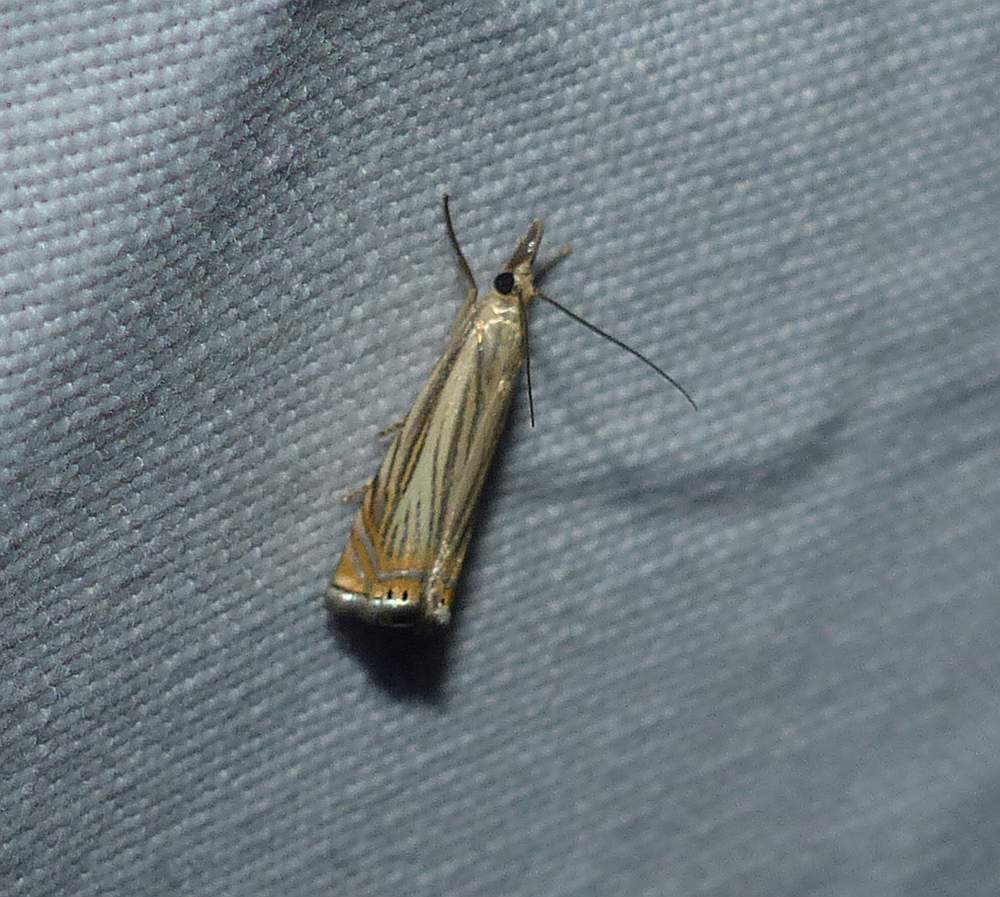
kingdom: Animalia
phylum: Arthropoda
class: Insecta
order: Lepidoptera
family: Crambidae
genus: Chrysoteuchia
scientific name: Chrysoteuchia topiarius
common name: Topiary grass-veneer
